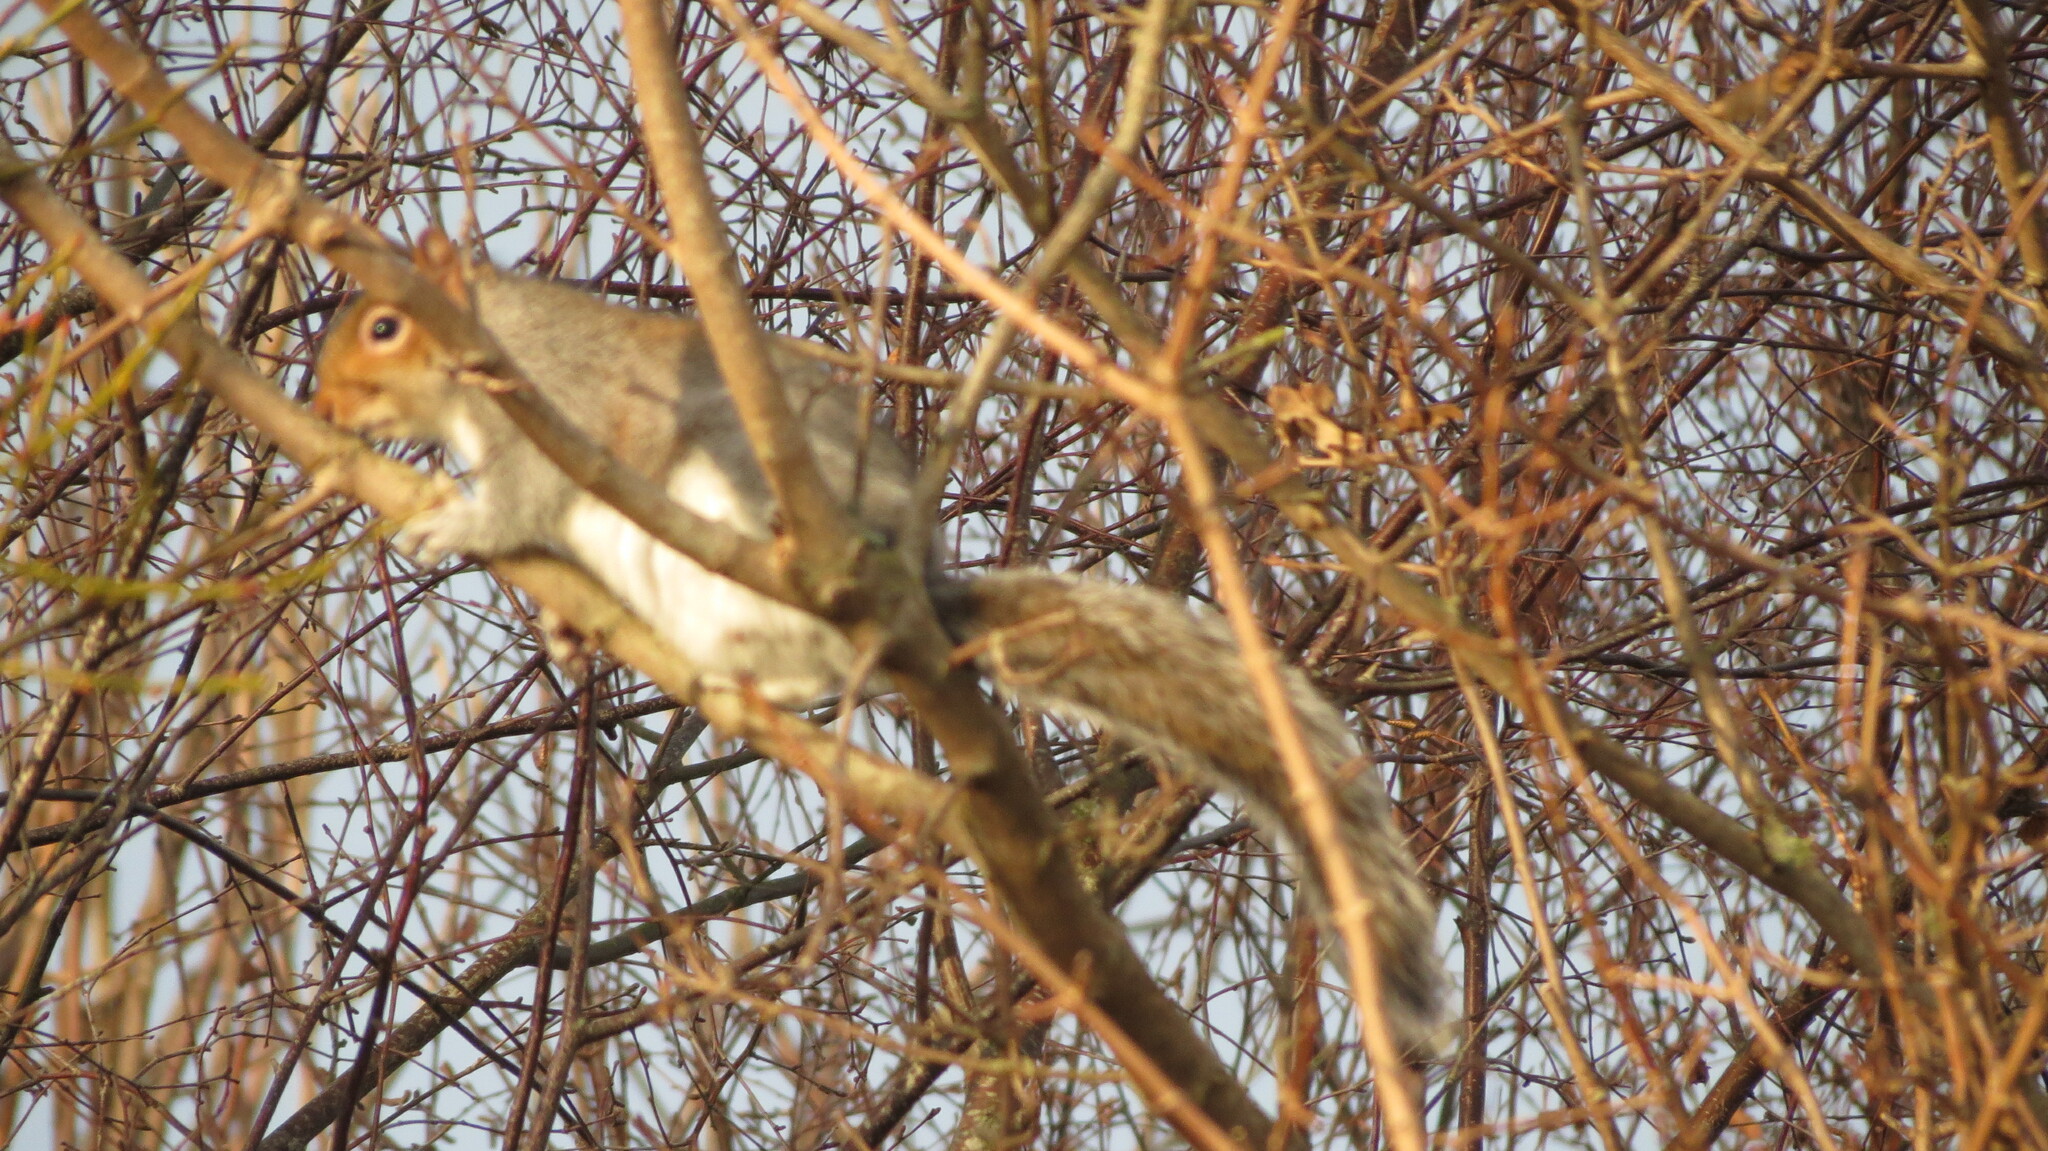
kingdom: Animalia
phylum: Chordata
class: Mammalia
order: Rodentia
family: Sciuridae
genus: Sciurus
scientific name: Sciurus carolinensis
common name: Eastern gray squirrel
